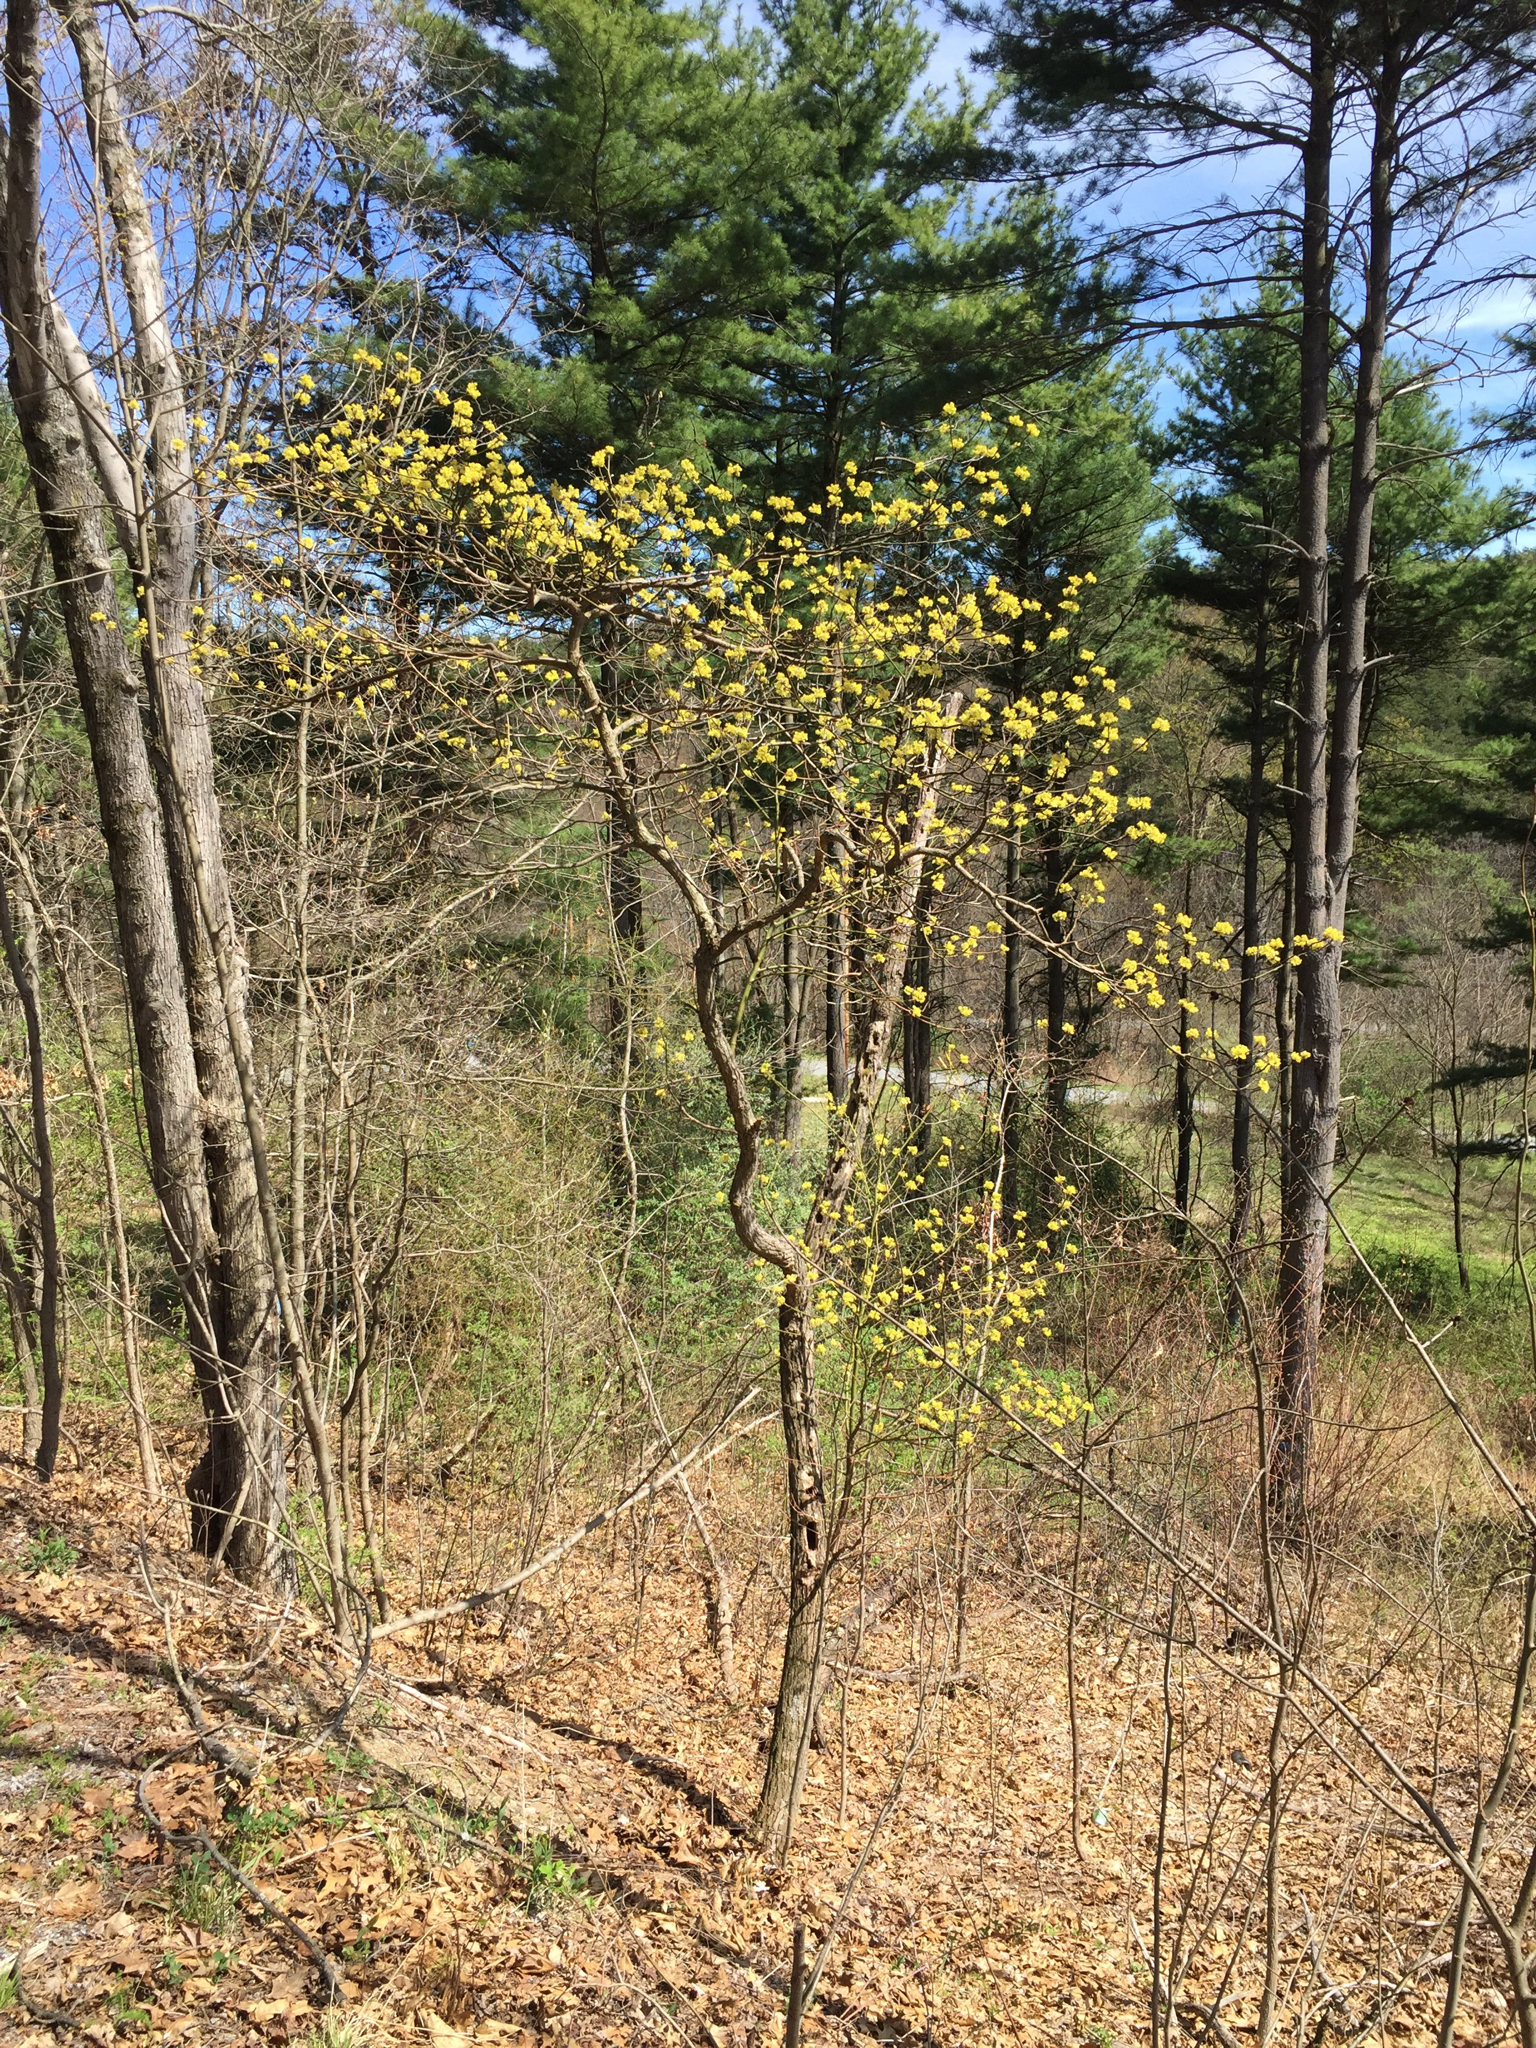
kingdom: Plantae
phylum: Tracheophyta
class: Magnoliopsida
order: Laurales
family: Lauraceae
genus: Sassafras
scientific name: Sassafras albidum
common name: Sassafras
